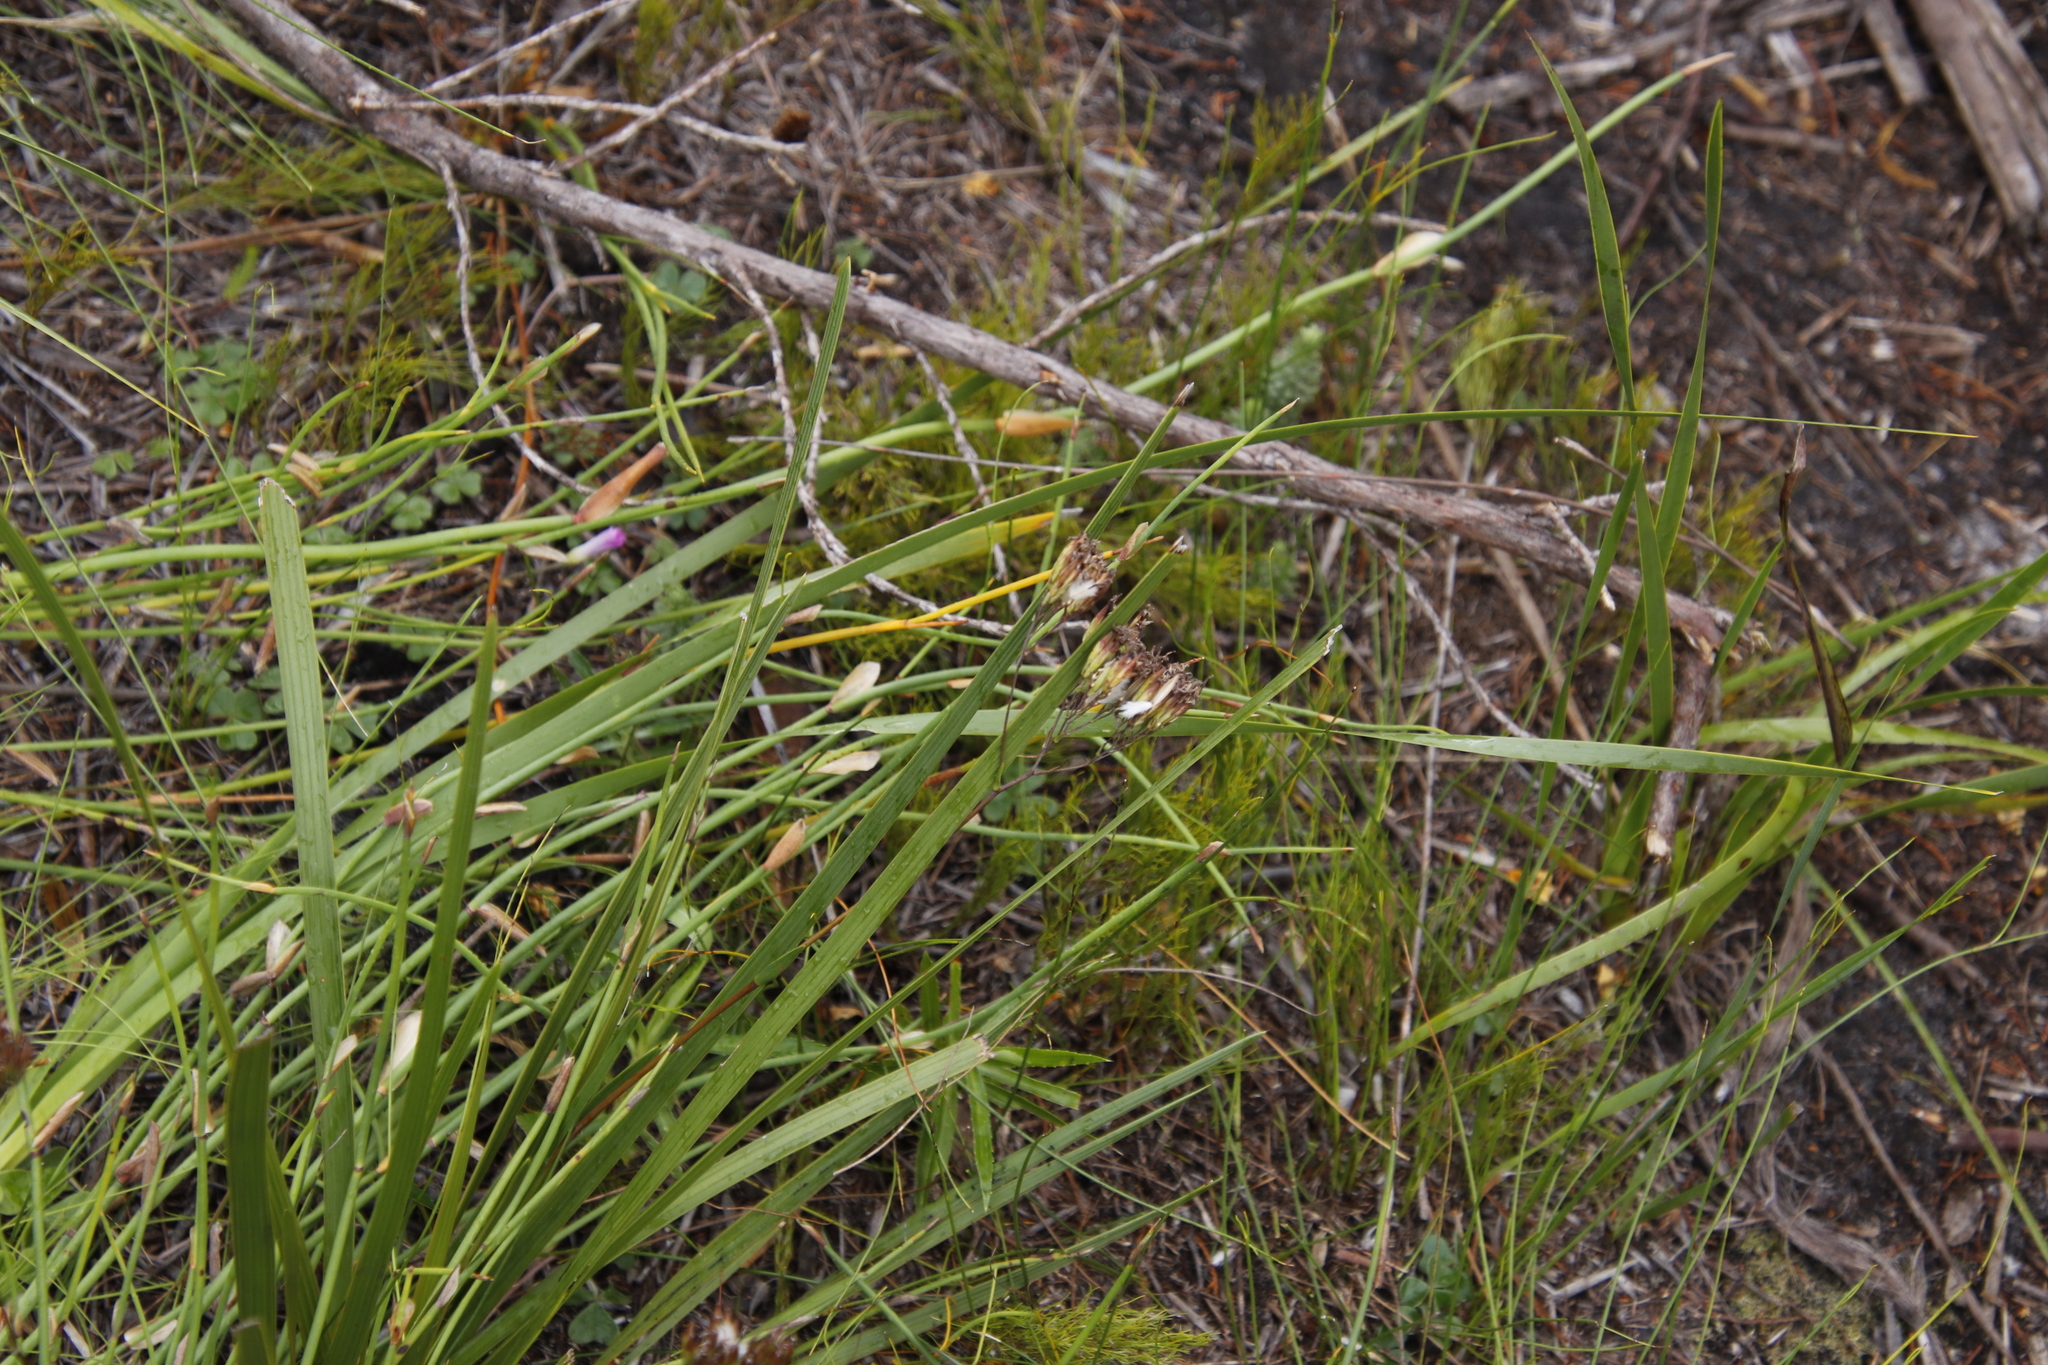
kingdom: Plantae
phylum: Tracheophyta
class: Magnoliopsida
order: Asterales
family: Asteraceae
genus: Corymbium
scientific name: Corymbium glabrum
